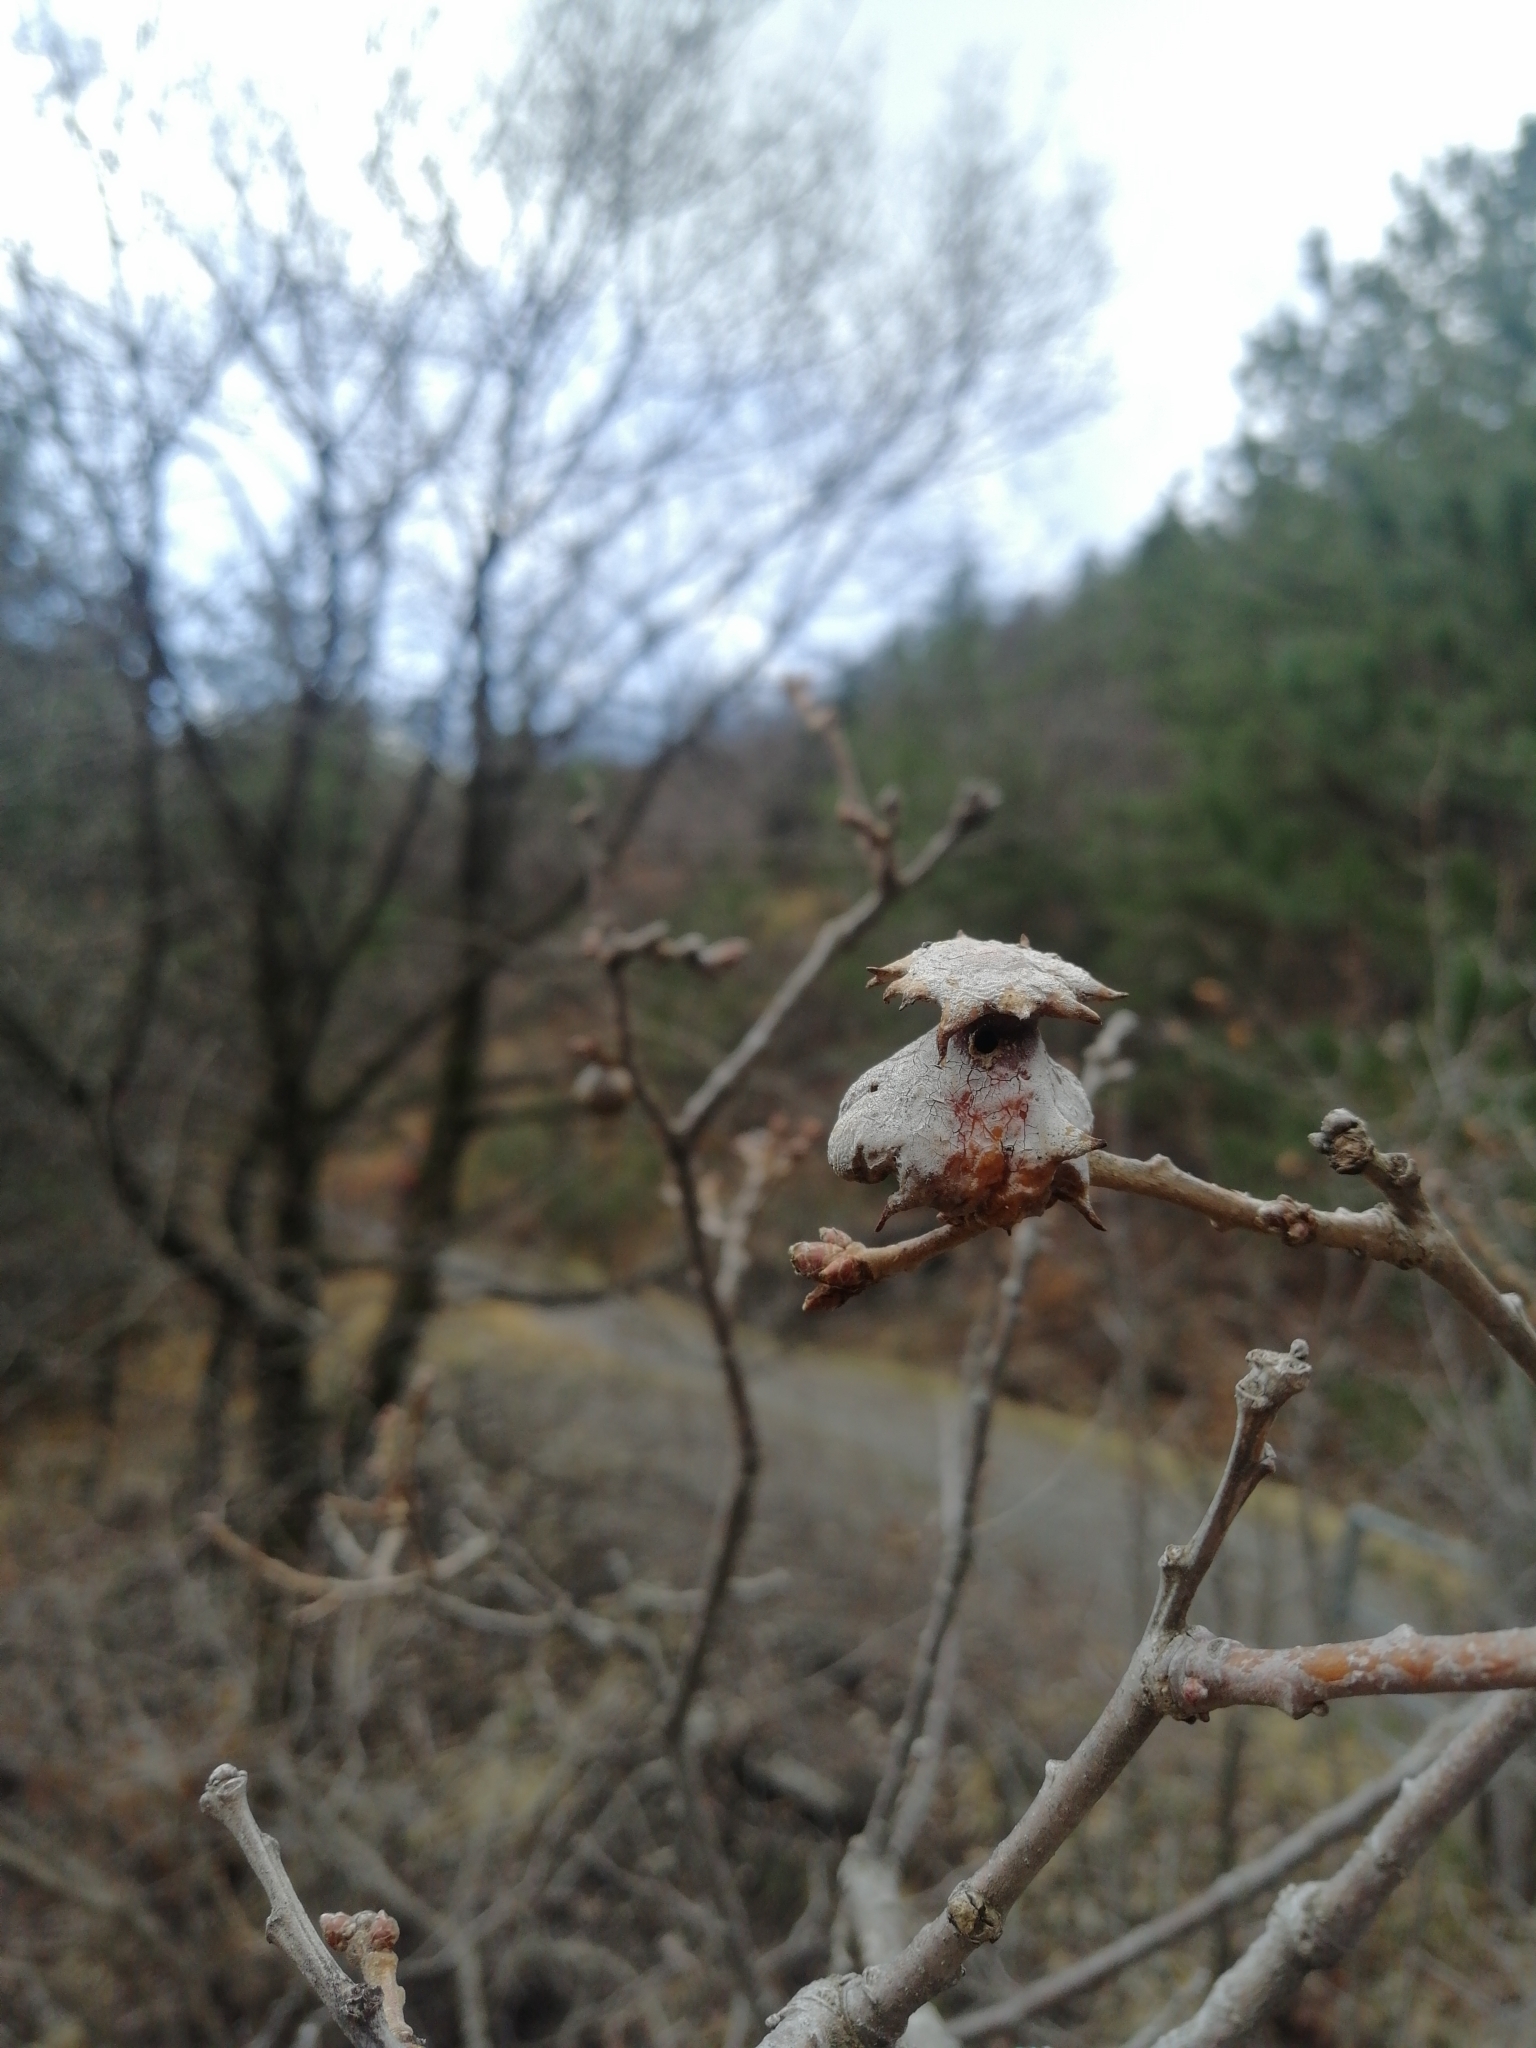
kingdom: Animalia
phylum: Arthropoda
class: Insecta
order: Hymenoptera
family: Cynipidae
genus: Andricus
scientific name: Andricus dentimitratus
